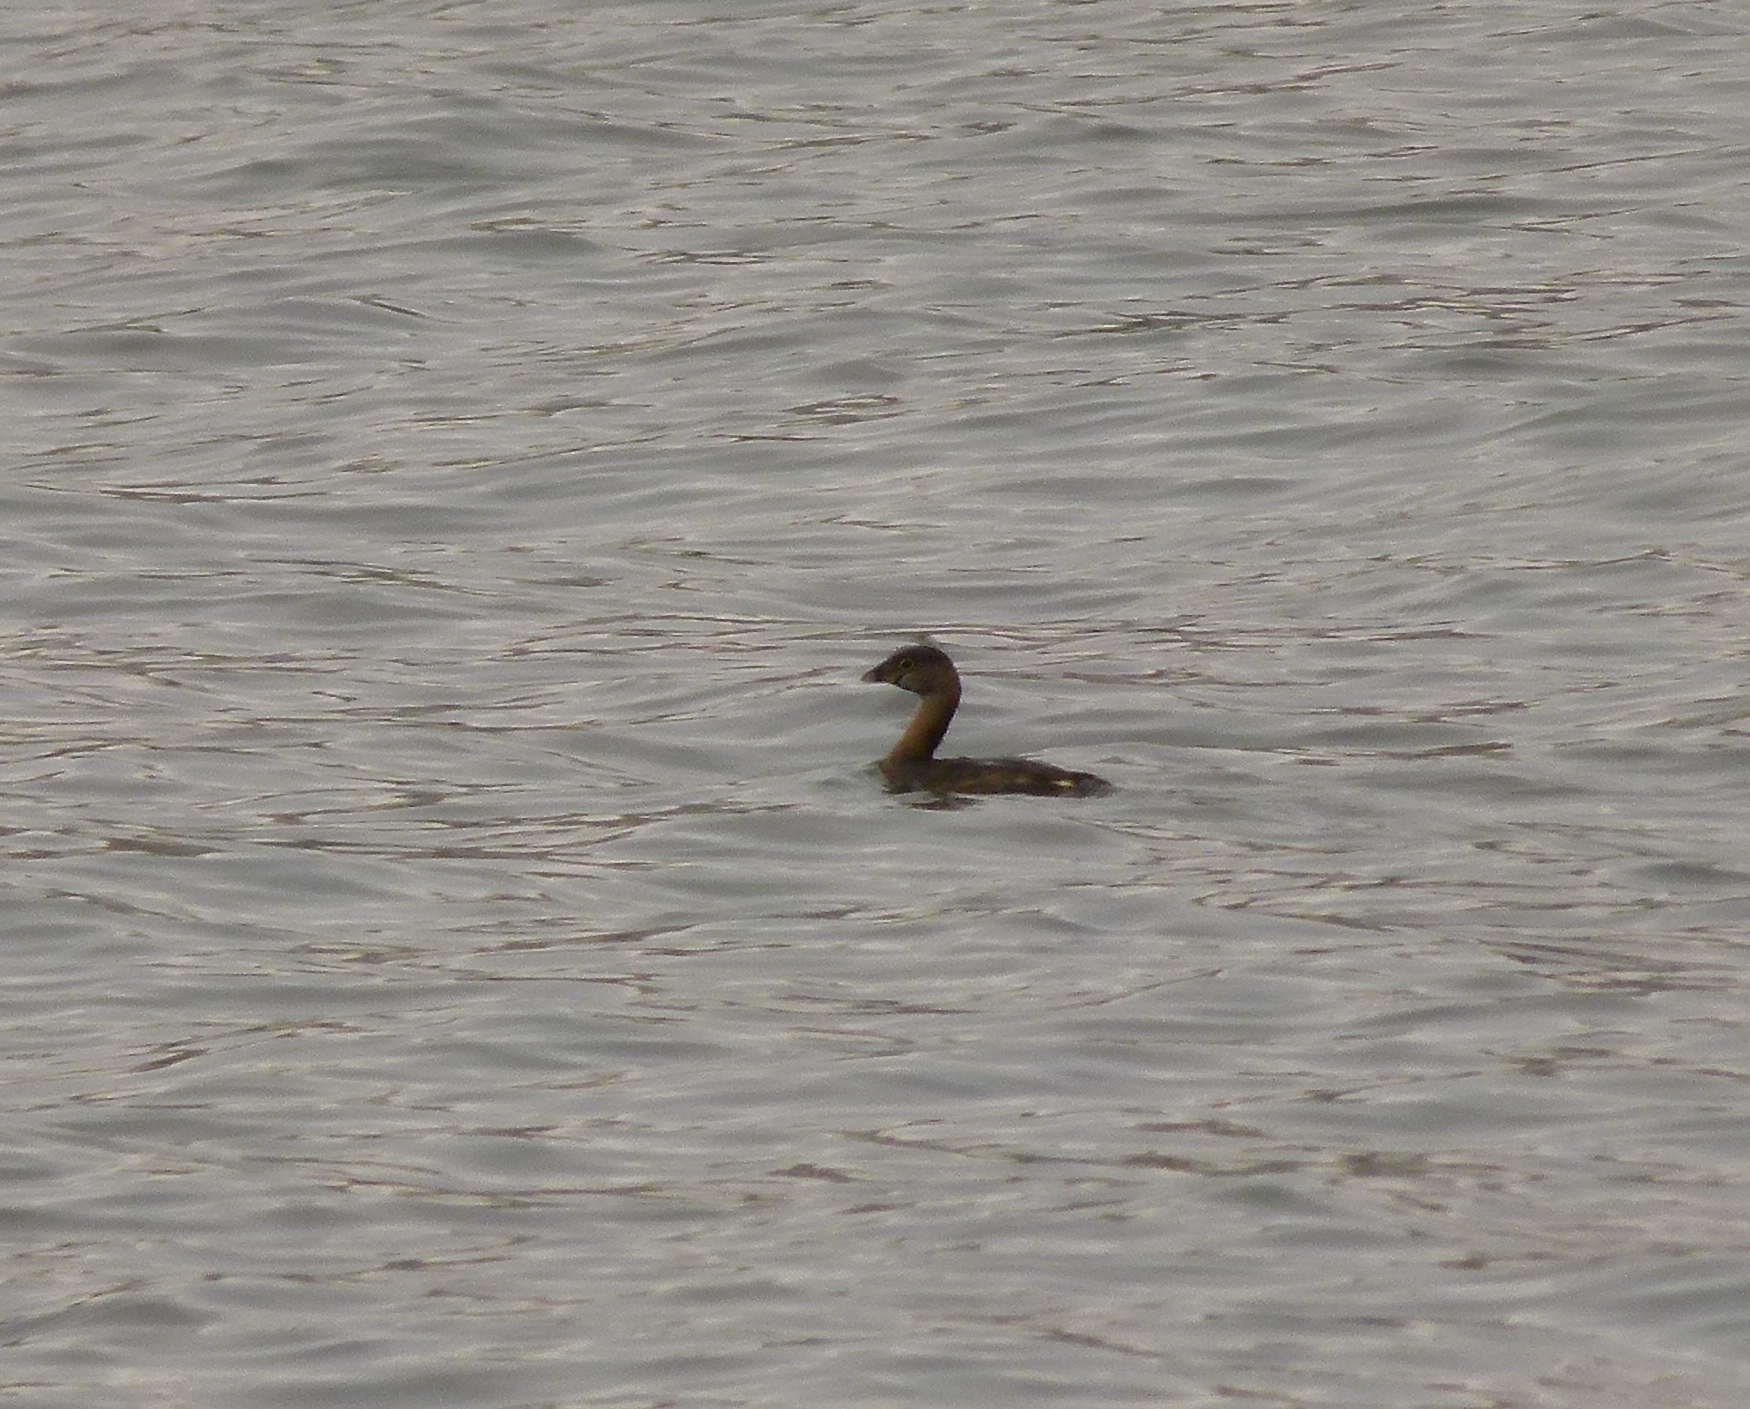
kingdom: Animalia
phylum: Chordata
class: Aves
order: Podicipediformes
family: Podicipedidae
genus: Podilymbus
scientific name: Podilymbus podiceps
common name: Pied-billed grebe
